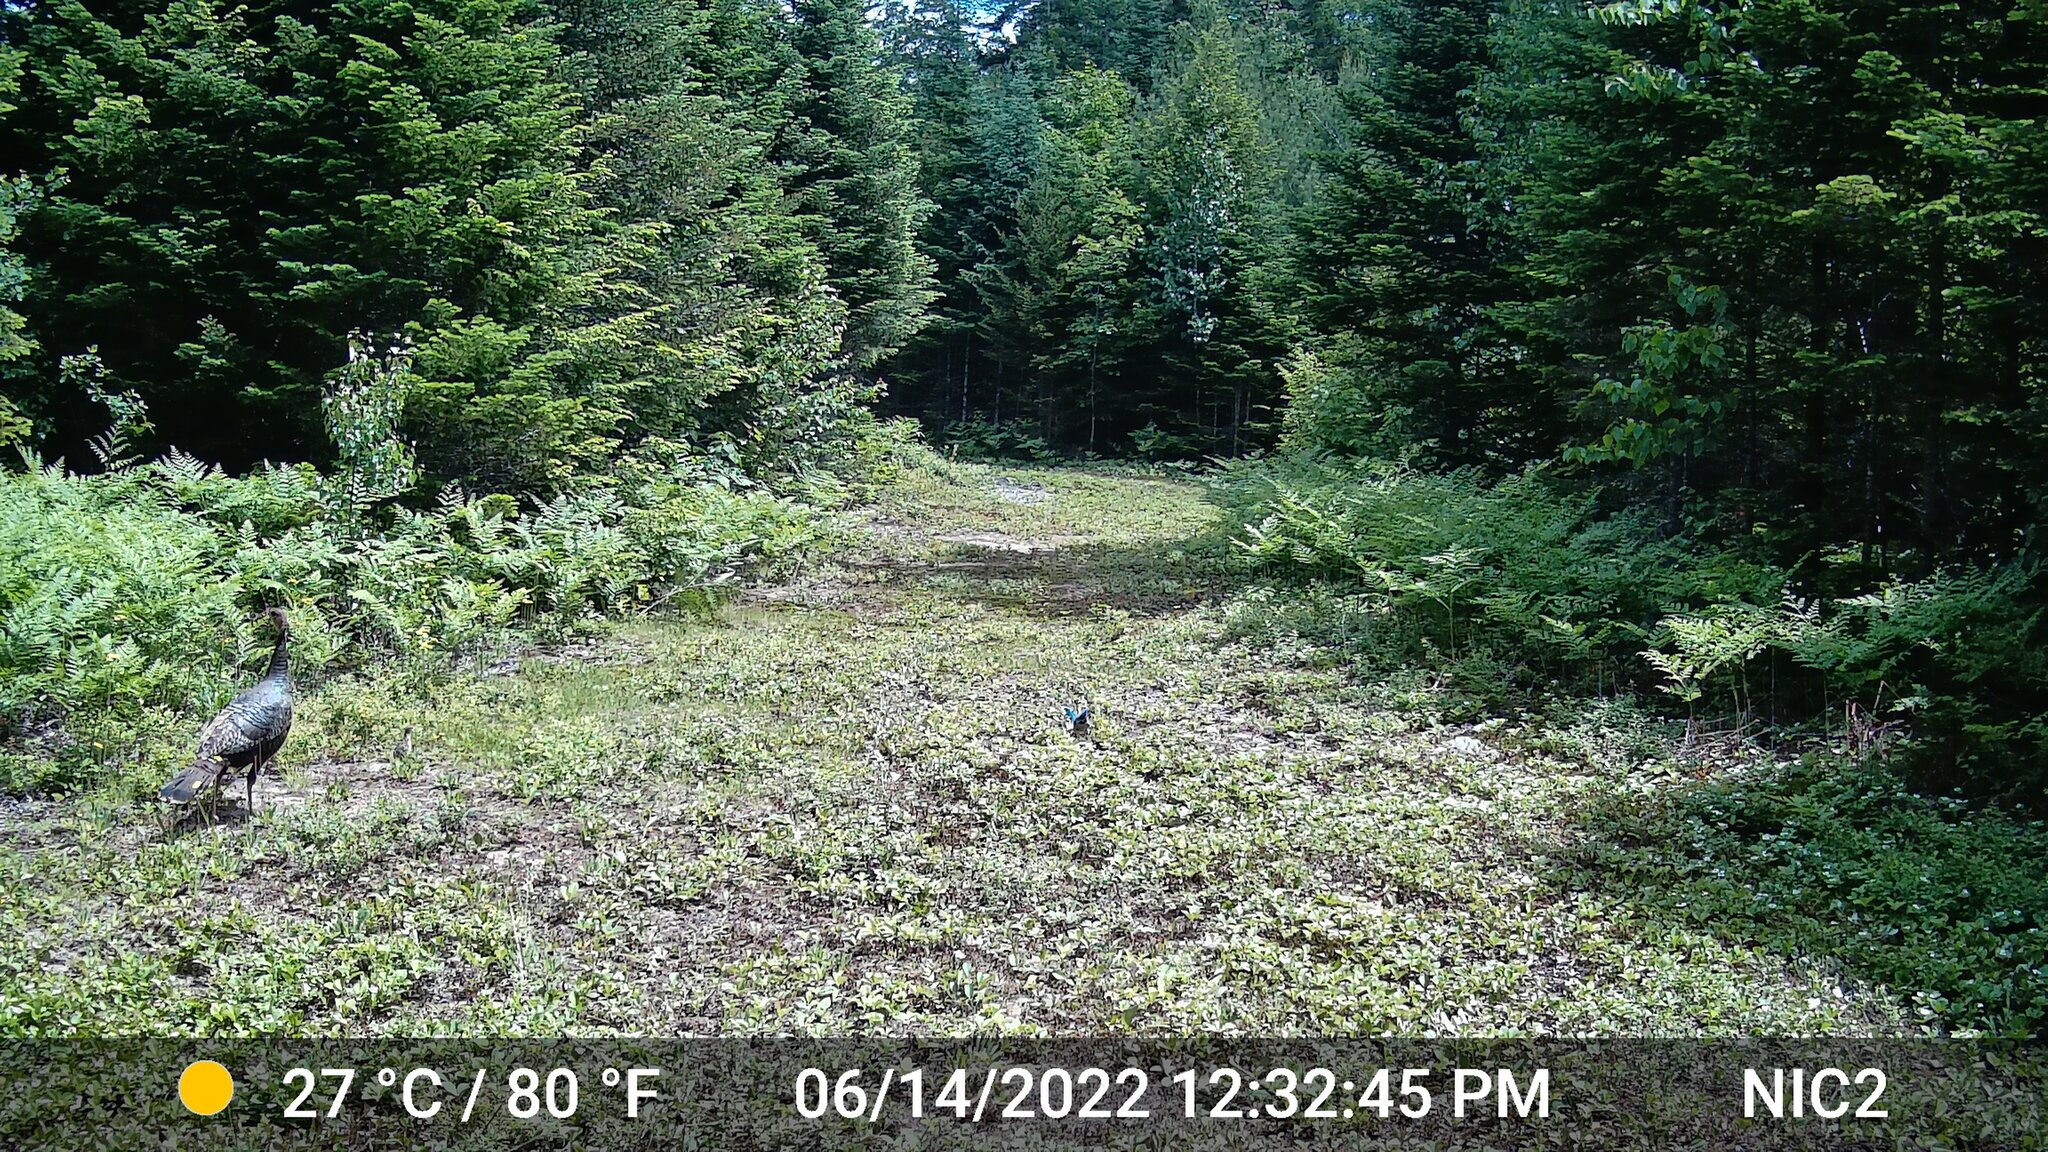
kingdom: Animalia
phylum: Chordata
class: Aves
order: Galliformes
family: Phasianidae
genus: Meleagris
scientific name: Meleagris gallopavo
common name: Wild turkey
